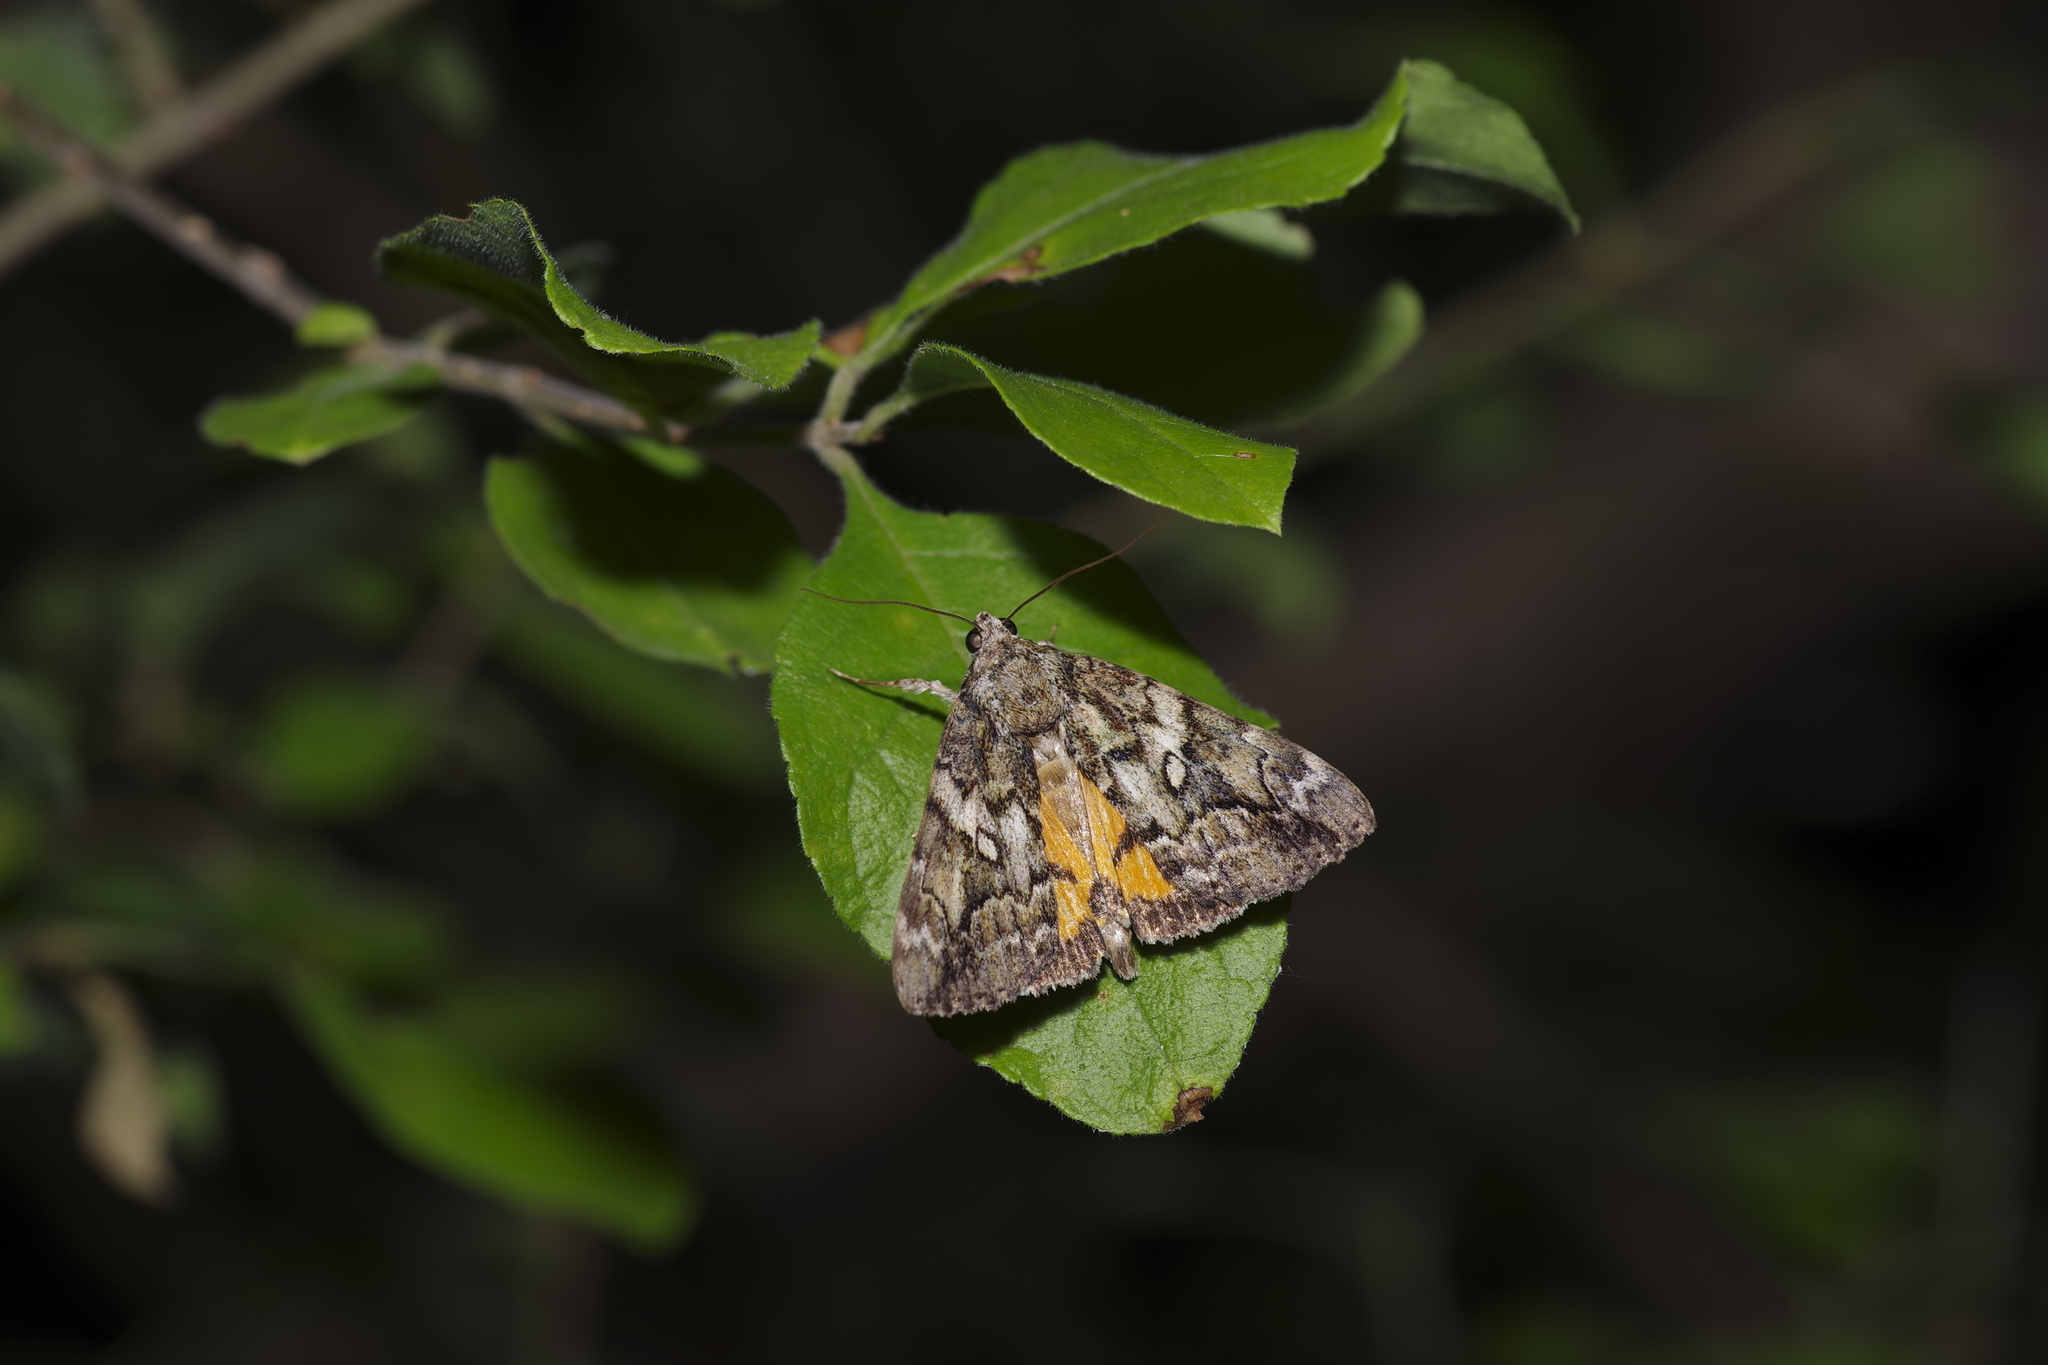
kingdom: Animalia
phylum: Arthropoda
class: Insecta
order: Lepidoptera
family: Erebidae
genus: Catocala
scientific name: Catocala micronympha
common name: Little nymph underwing
